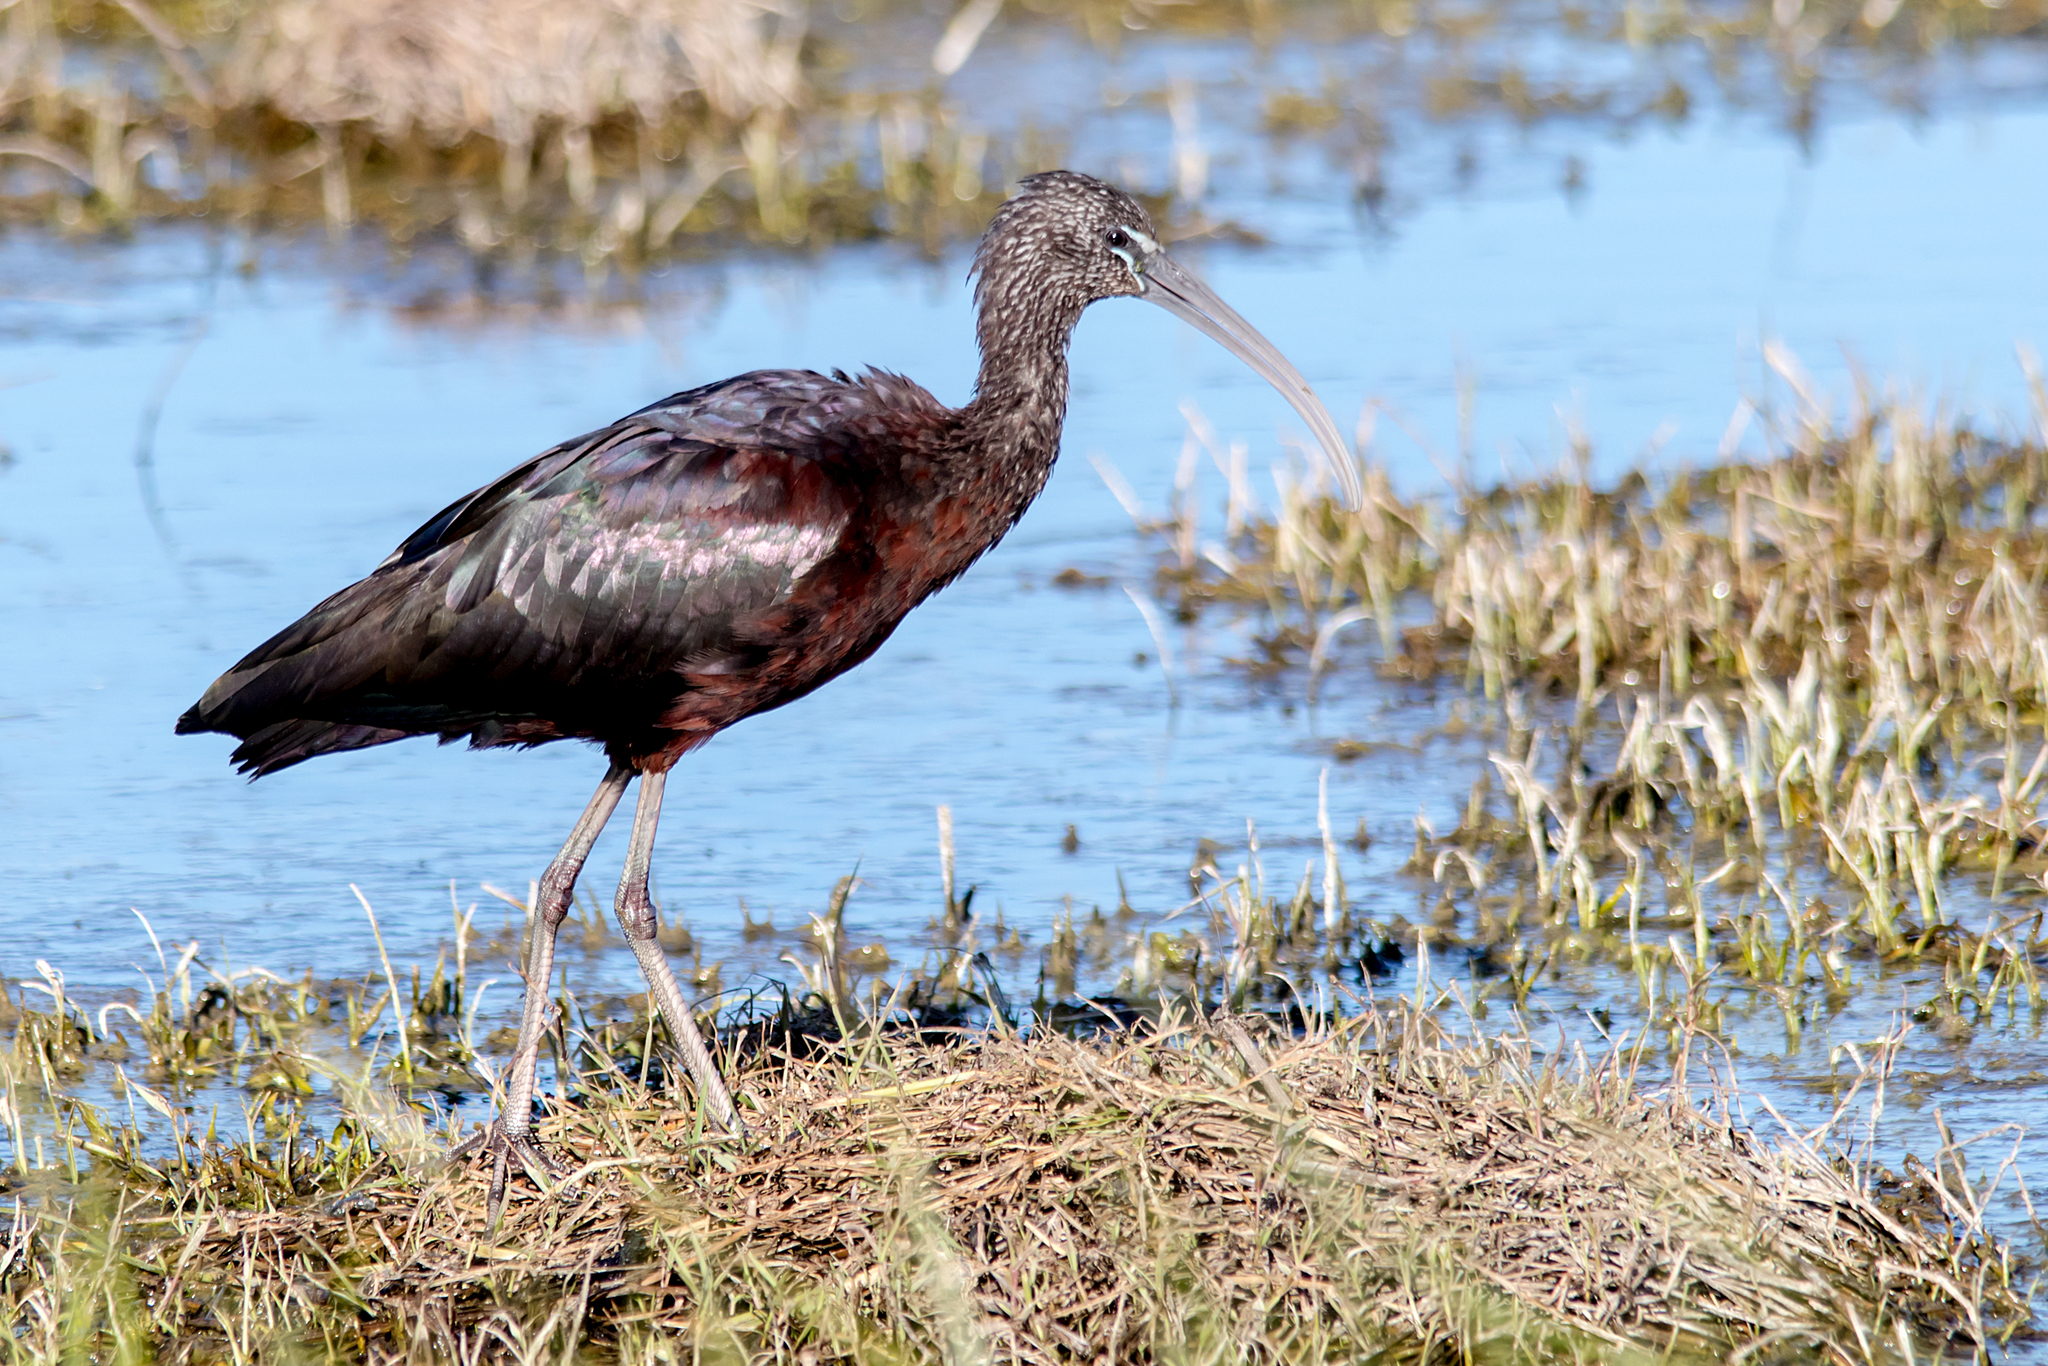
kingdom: Animalia
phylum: Chordata
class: Aves
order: Pelecaniformes
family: Threskiornithidae
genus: Plegadis
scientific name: Plegadis falcinellus
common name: Glossy ibis
